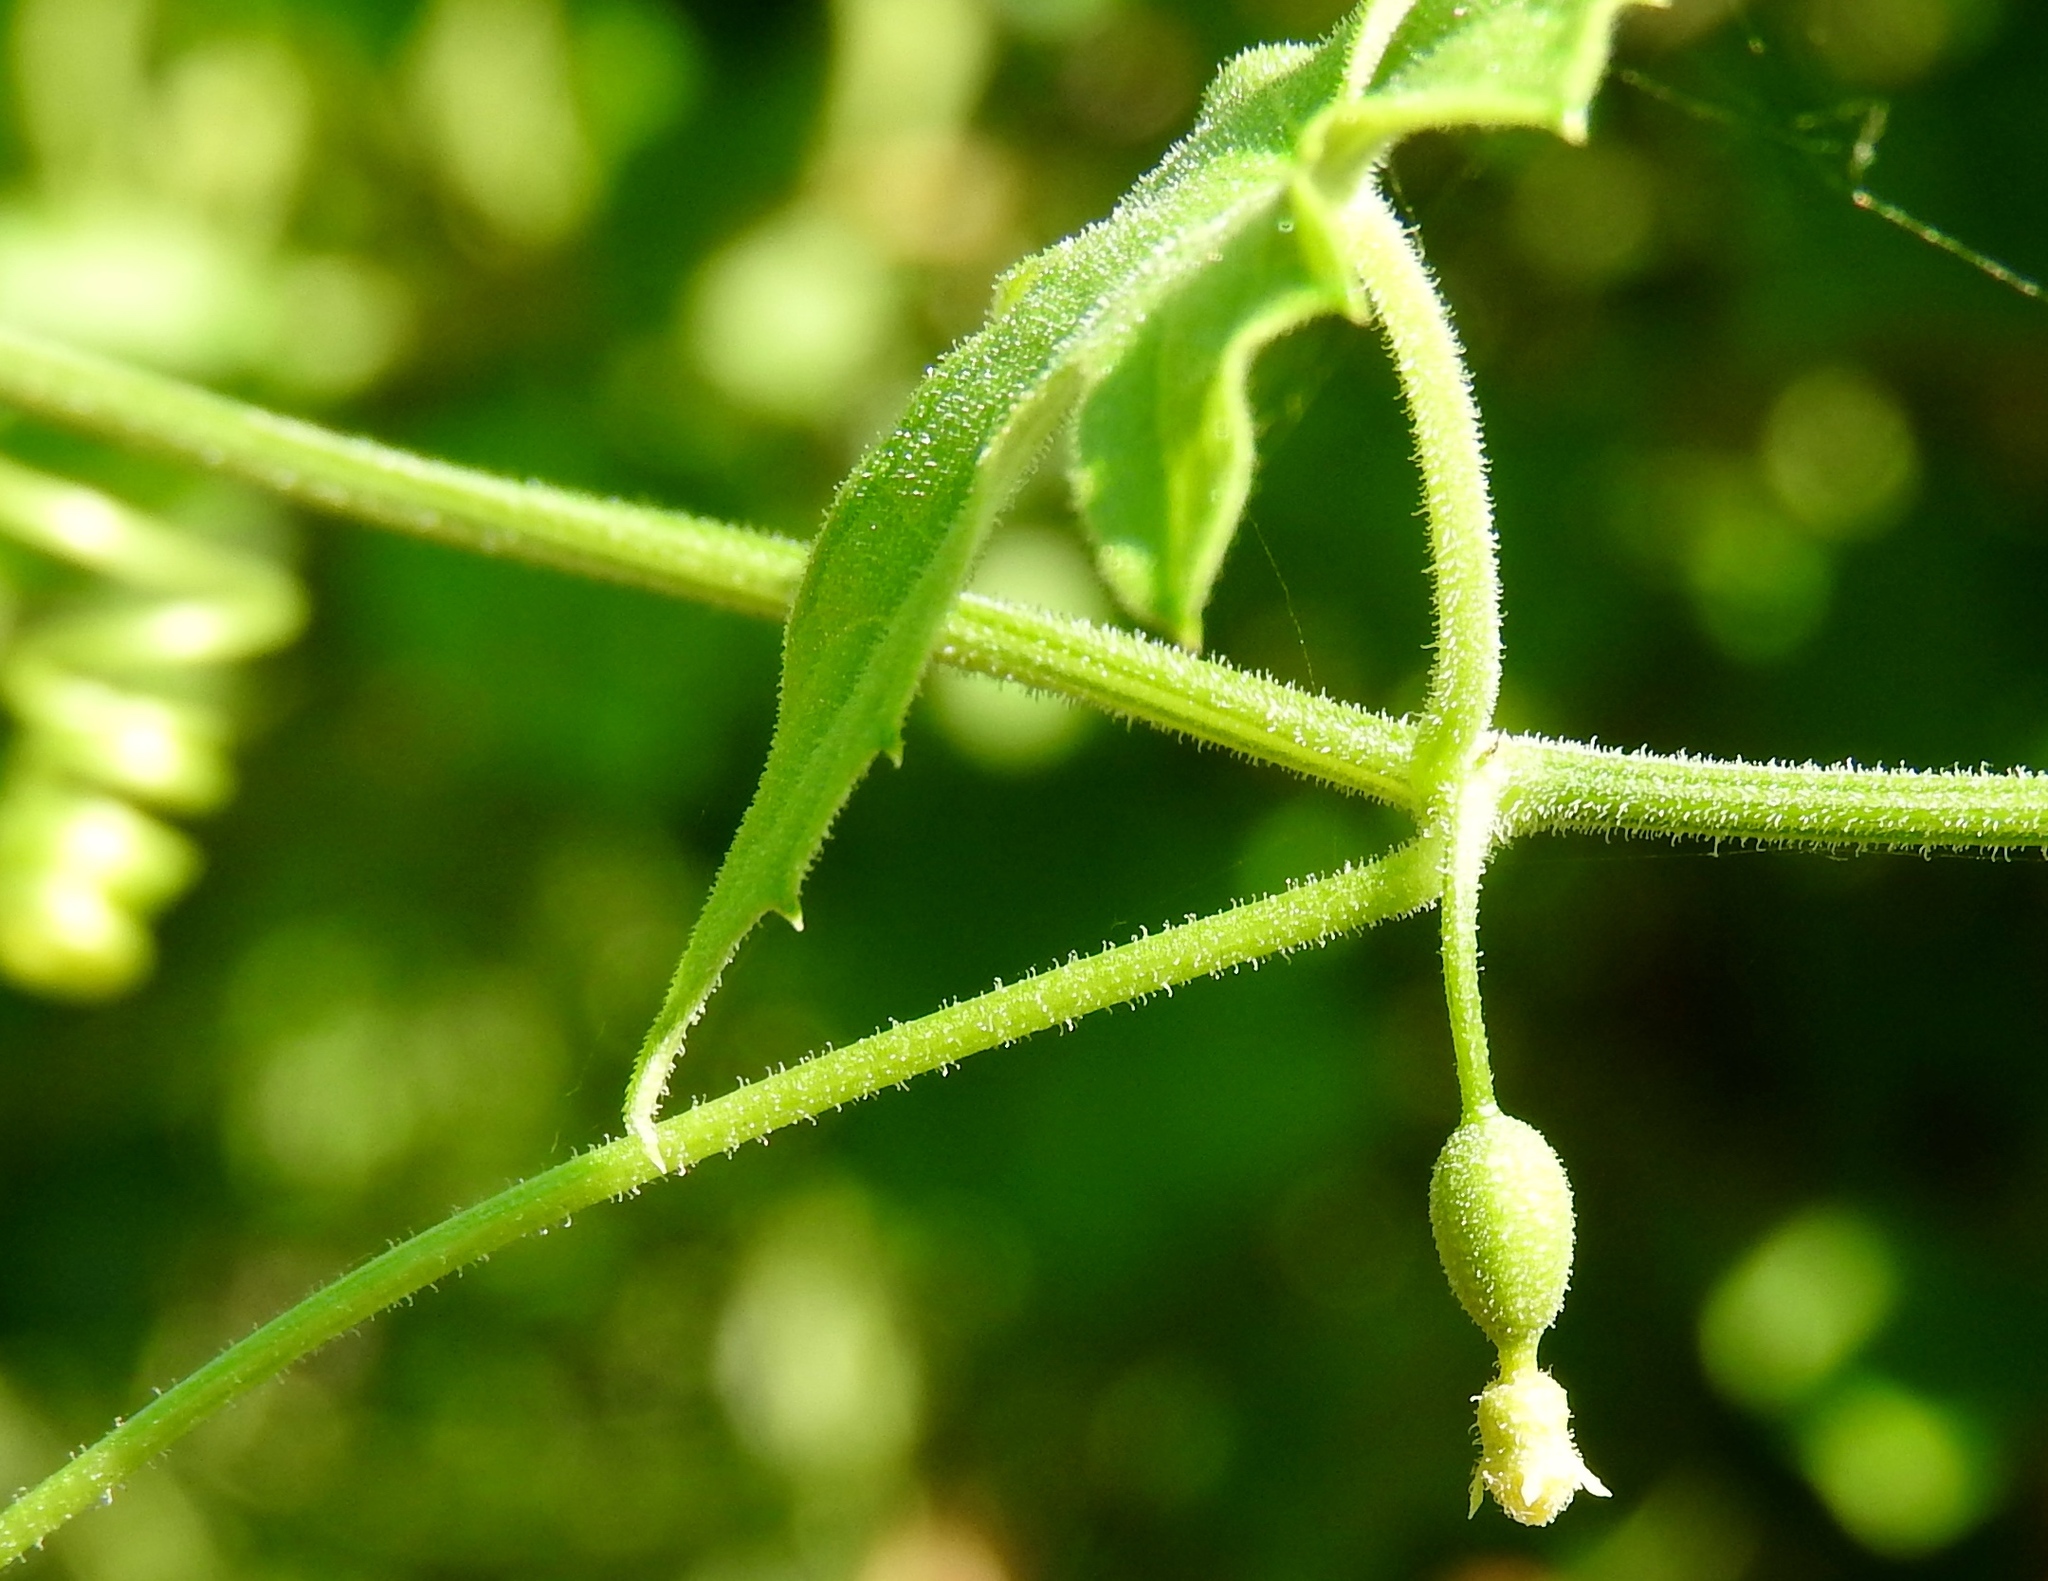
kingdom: Plantae
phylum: Tracheophyta
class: Magnoliopsida
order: Cucurbitales
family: Cucurbitaceae
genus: Melothria
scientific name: Melothria
